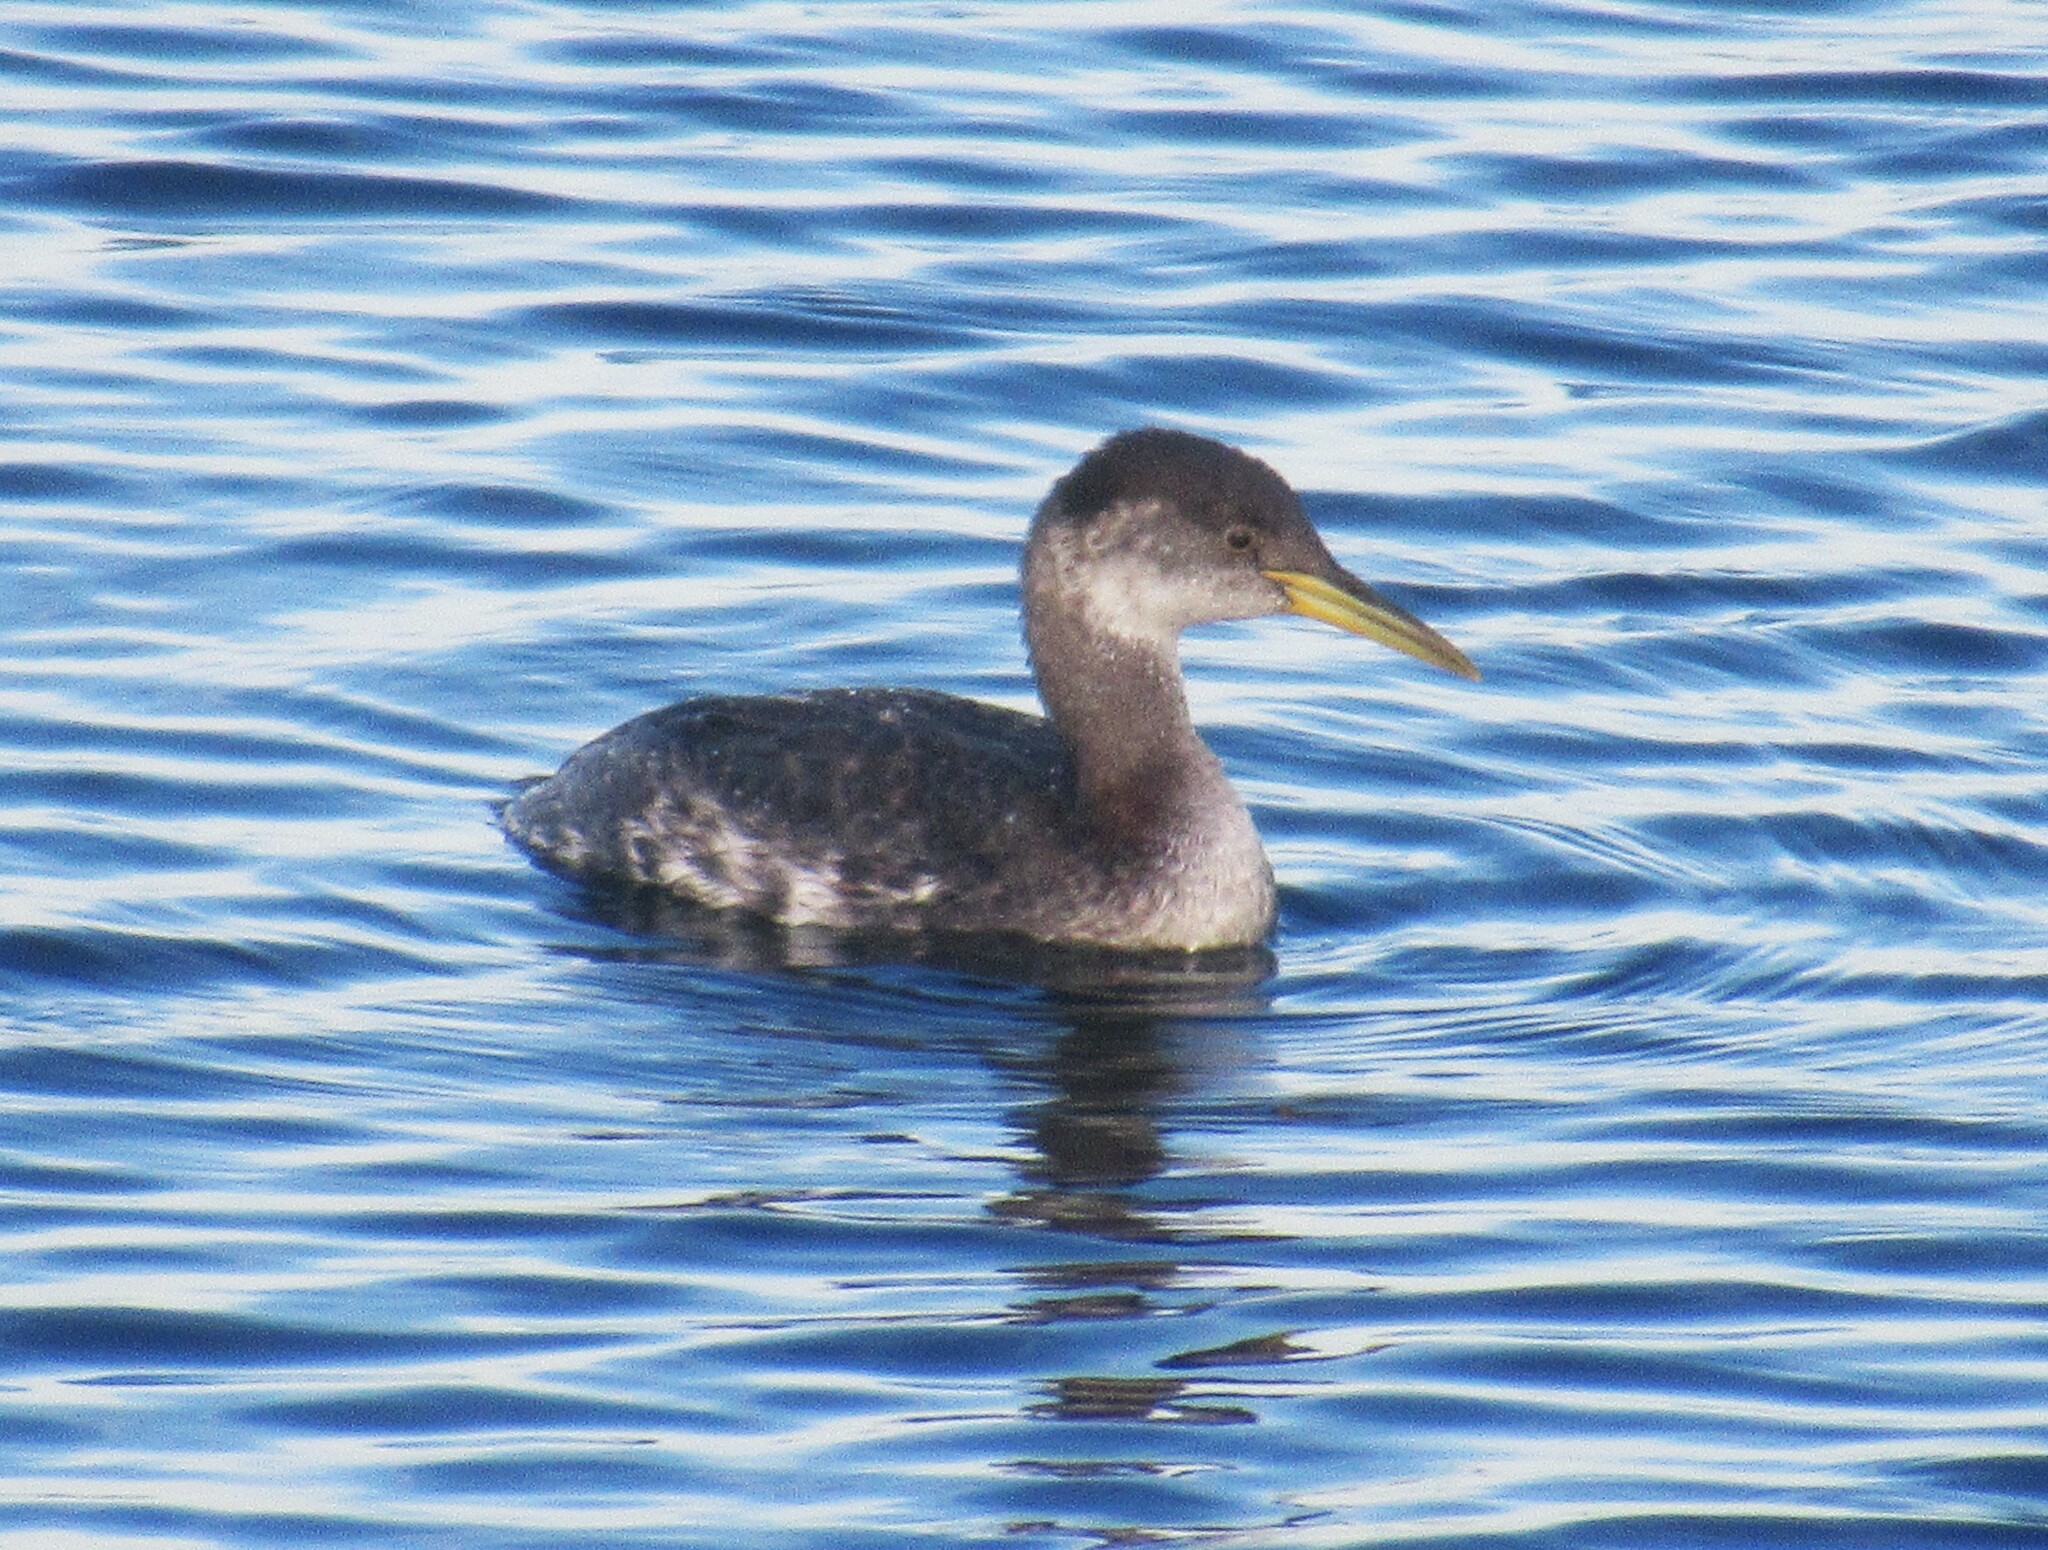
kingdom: Animalia
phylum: Chordata
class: Aves
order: Podicipediformes
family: Podicipedidae
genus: Podiceps
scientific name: Podiceps grisegena
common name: Red-necked grebe
